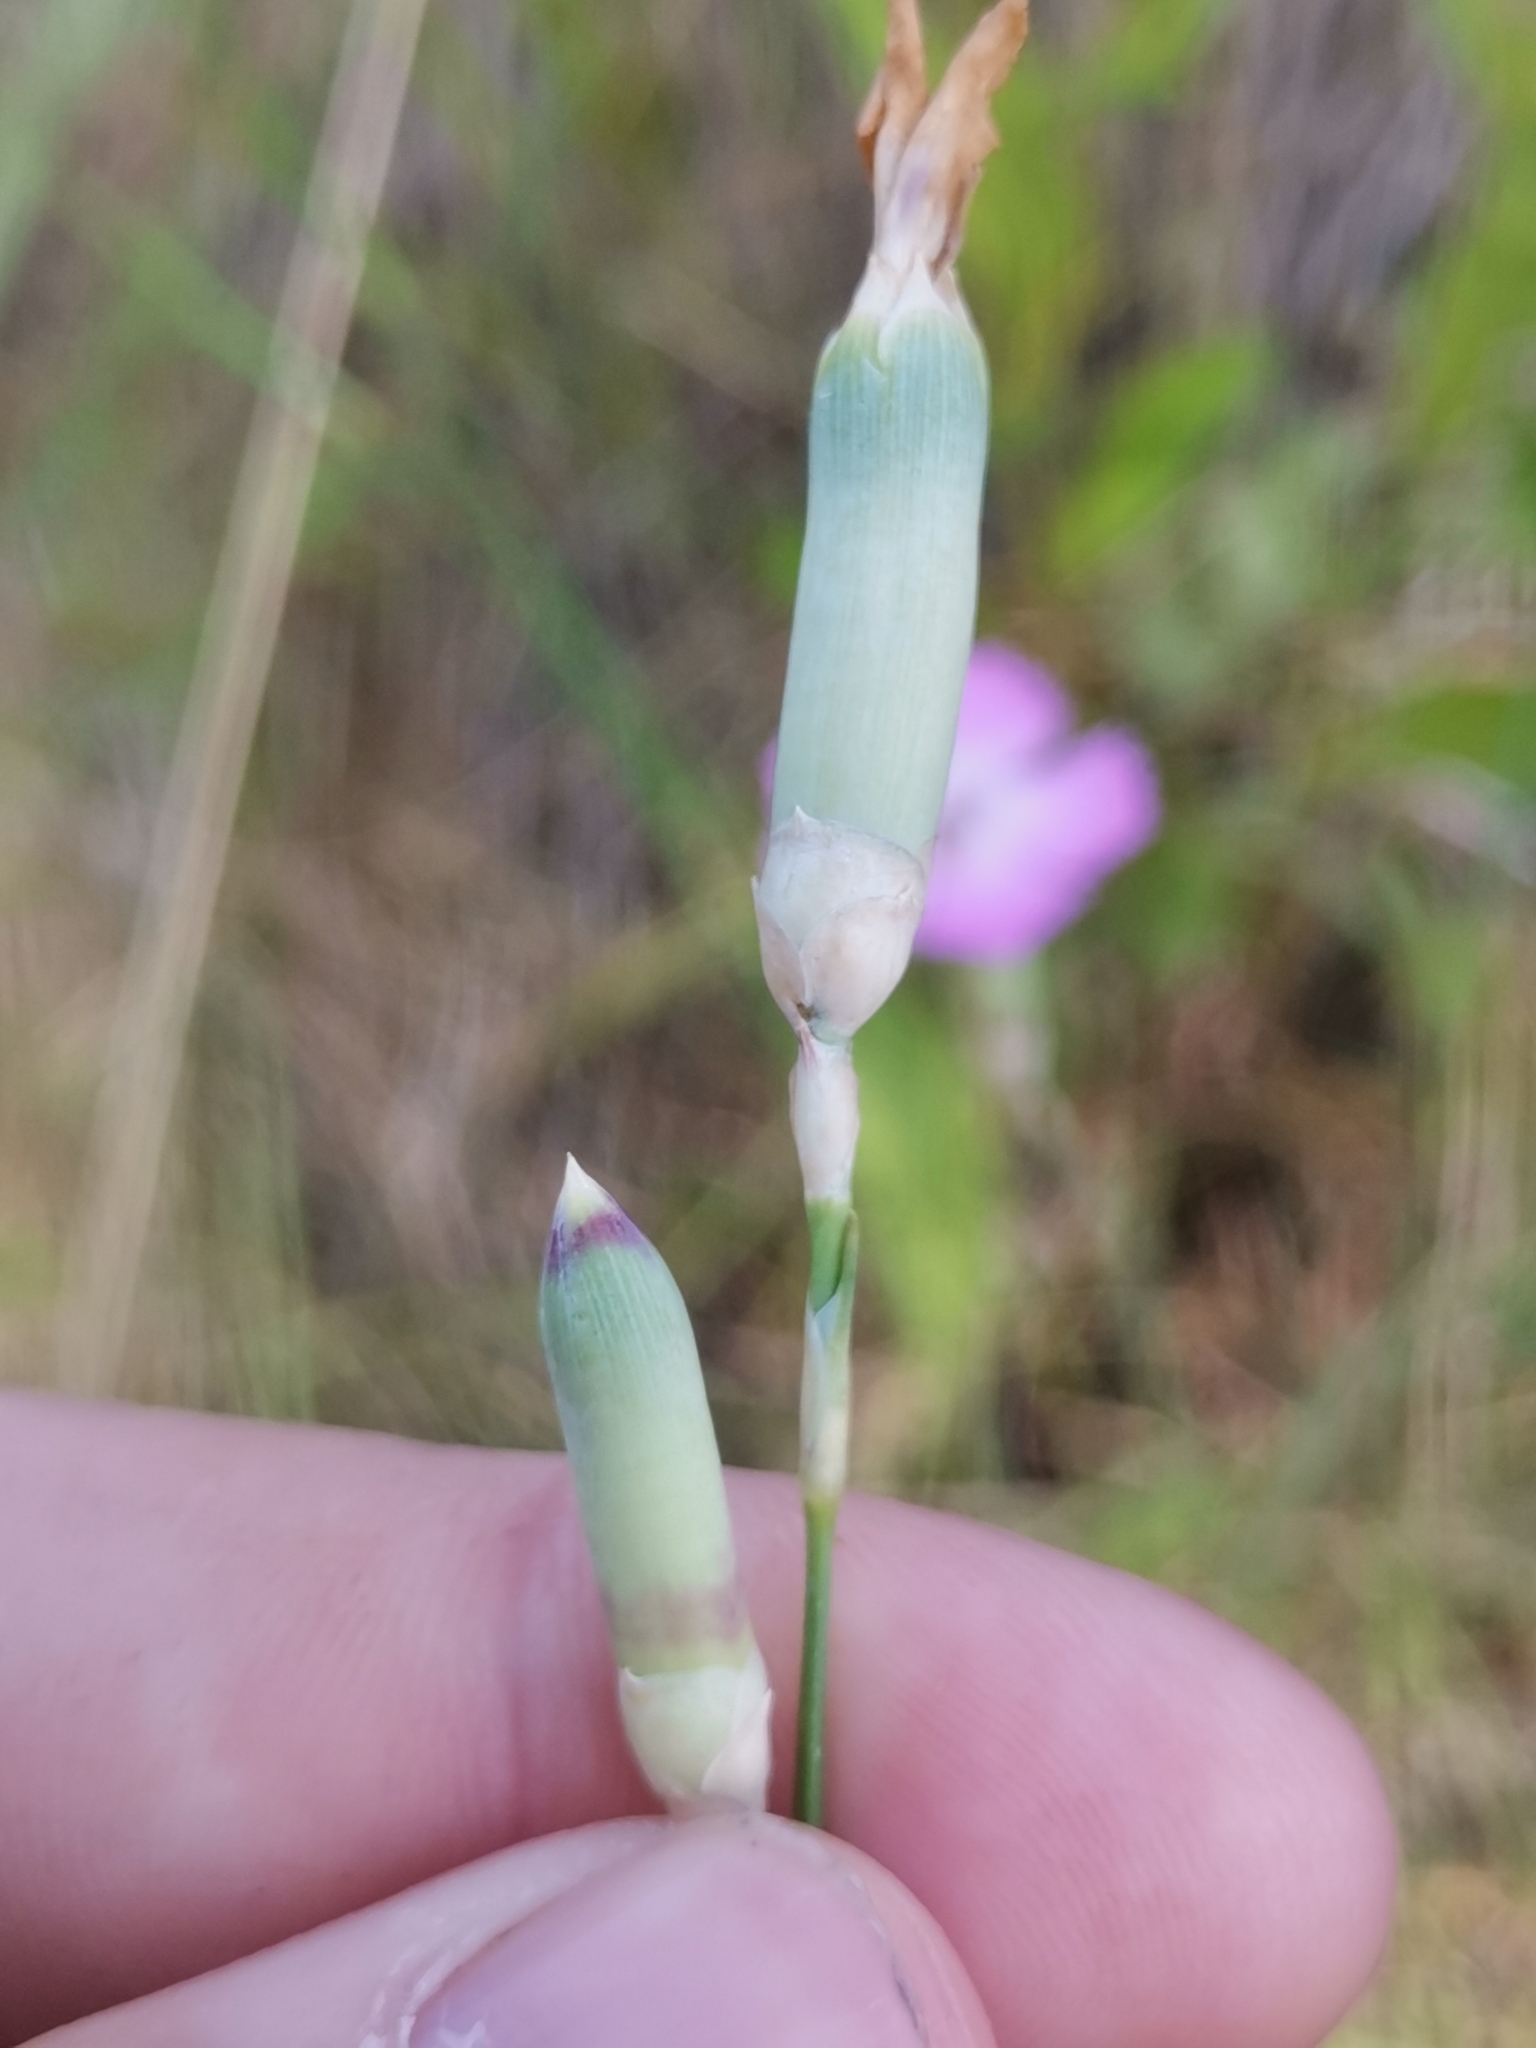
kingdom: Plantae
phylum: Tracheophyta
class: Magnoliopsida
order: Caryophyllales
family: Caryophyllaceae
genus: Dianthus
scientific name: Dianthus sylvestris
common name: Wood pink
